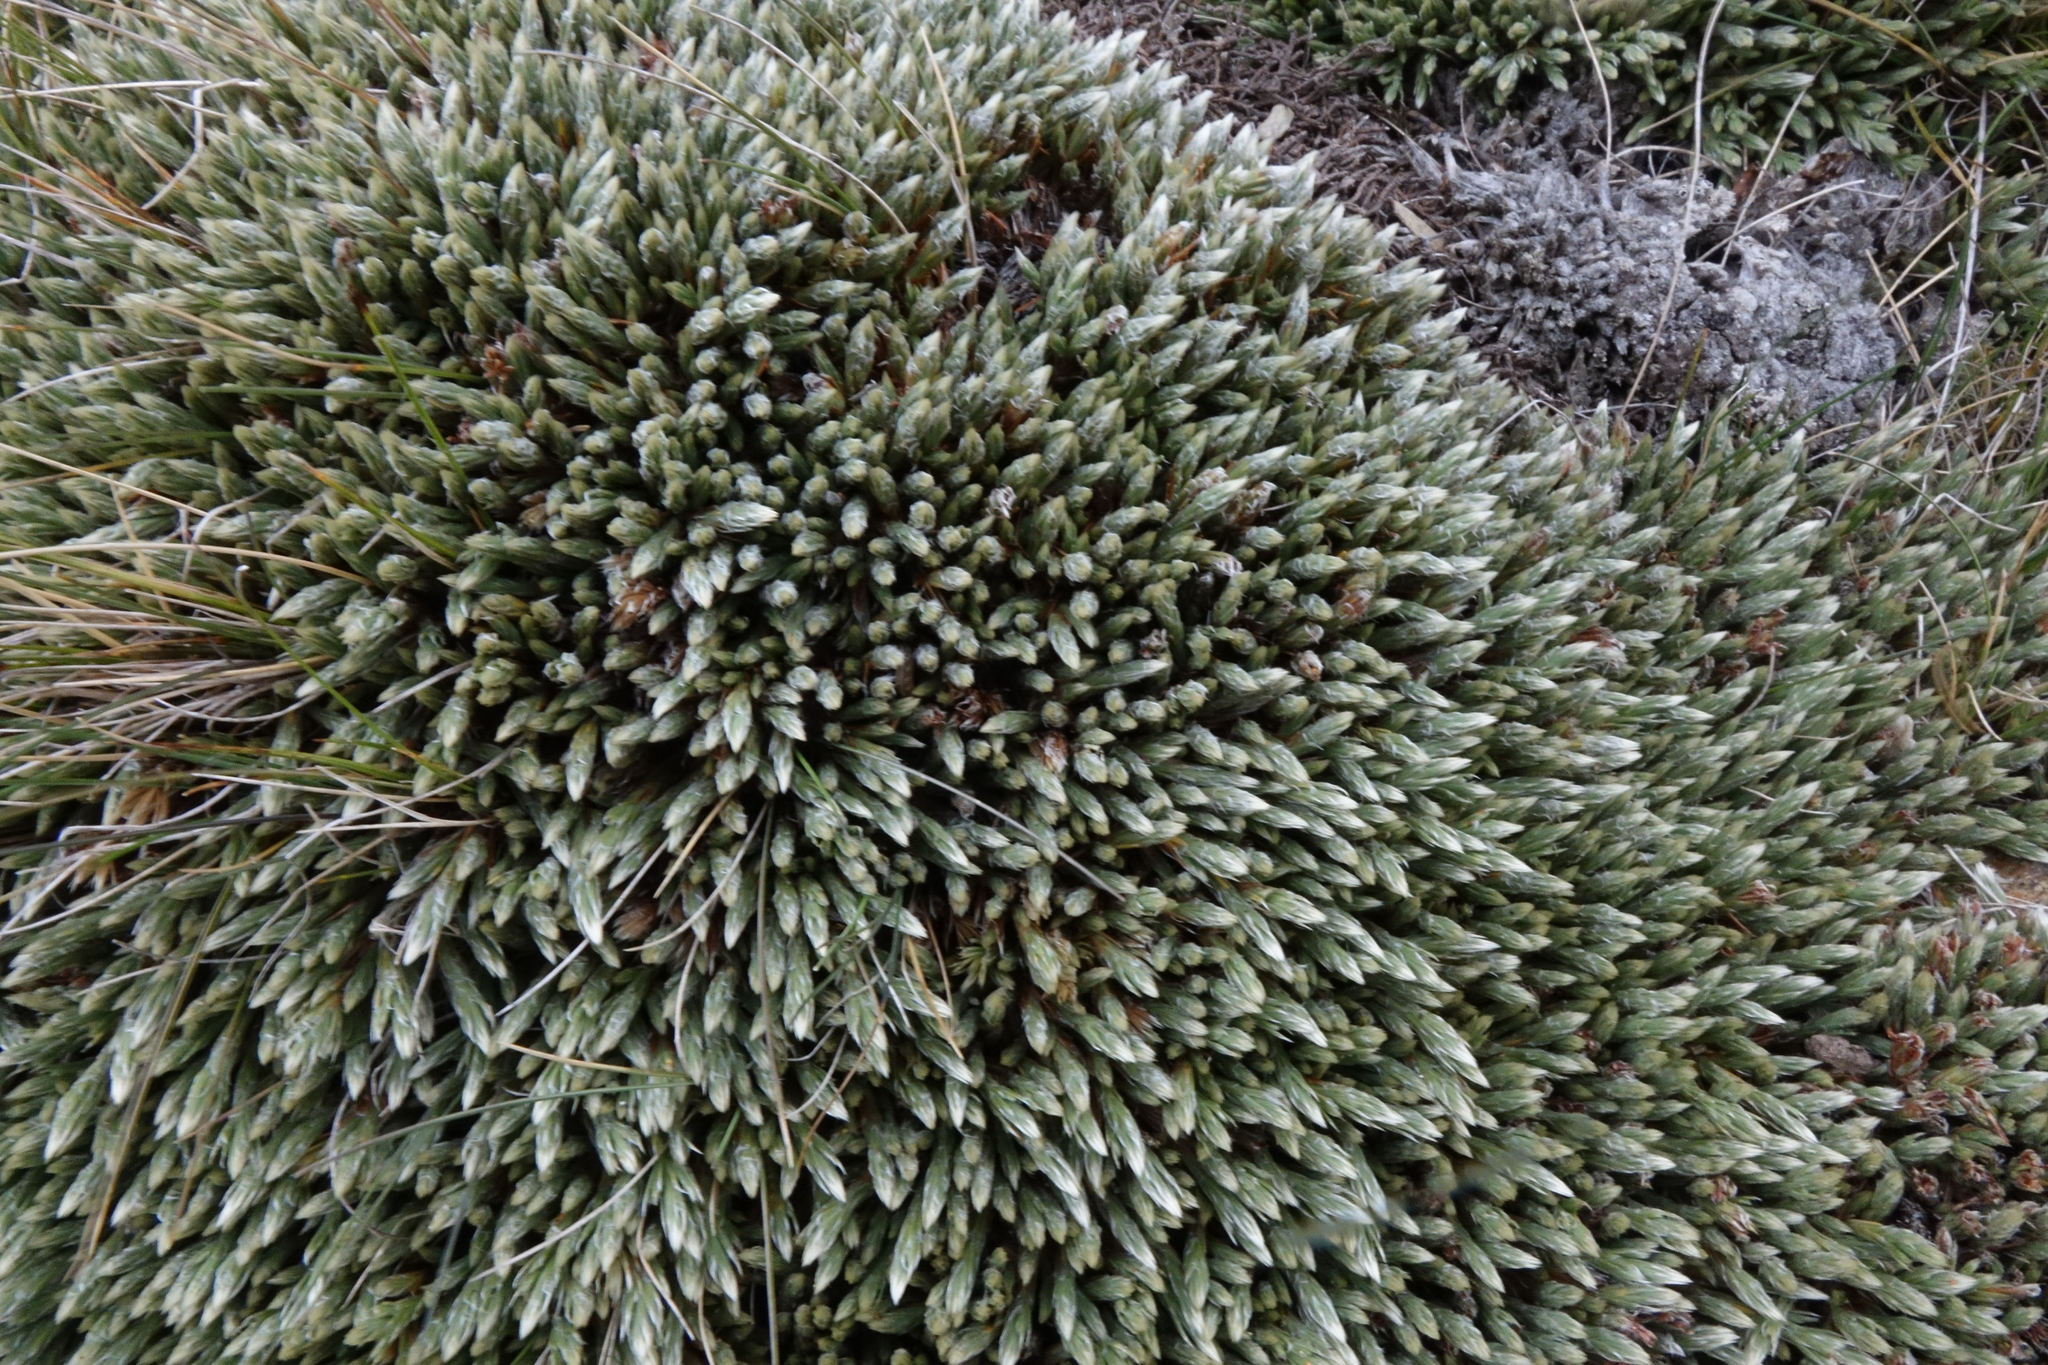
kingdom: Plantae
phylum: Tracheophyta
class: Magnoliopsida
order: Malvales
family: Thymelaeaceae
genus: Kelleria
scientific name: Kelleria villosa
